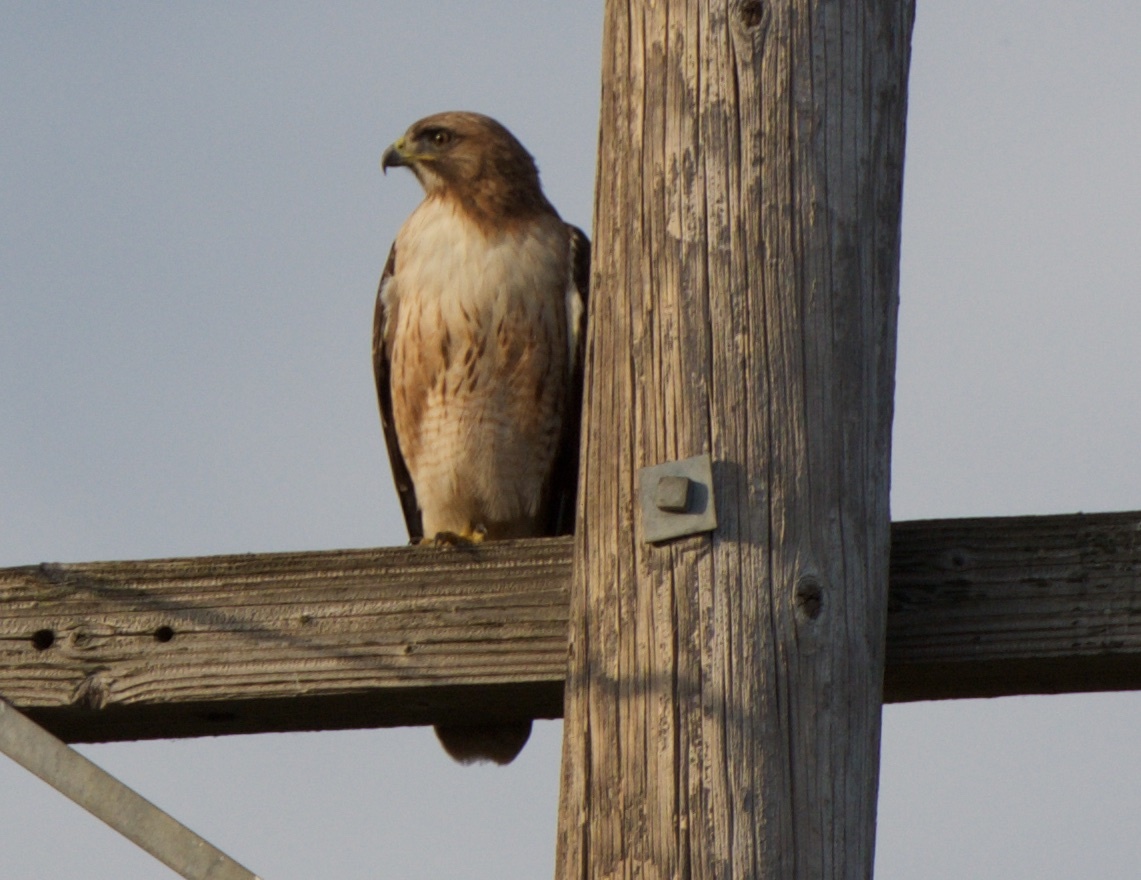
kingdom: Animalia
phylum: Chordata
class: Aves
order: Accipitriformes
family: Accipitridae
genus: Buteo
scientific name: Buteo jamaicensis
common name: Red-tailed hawk
